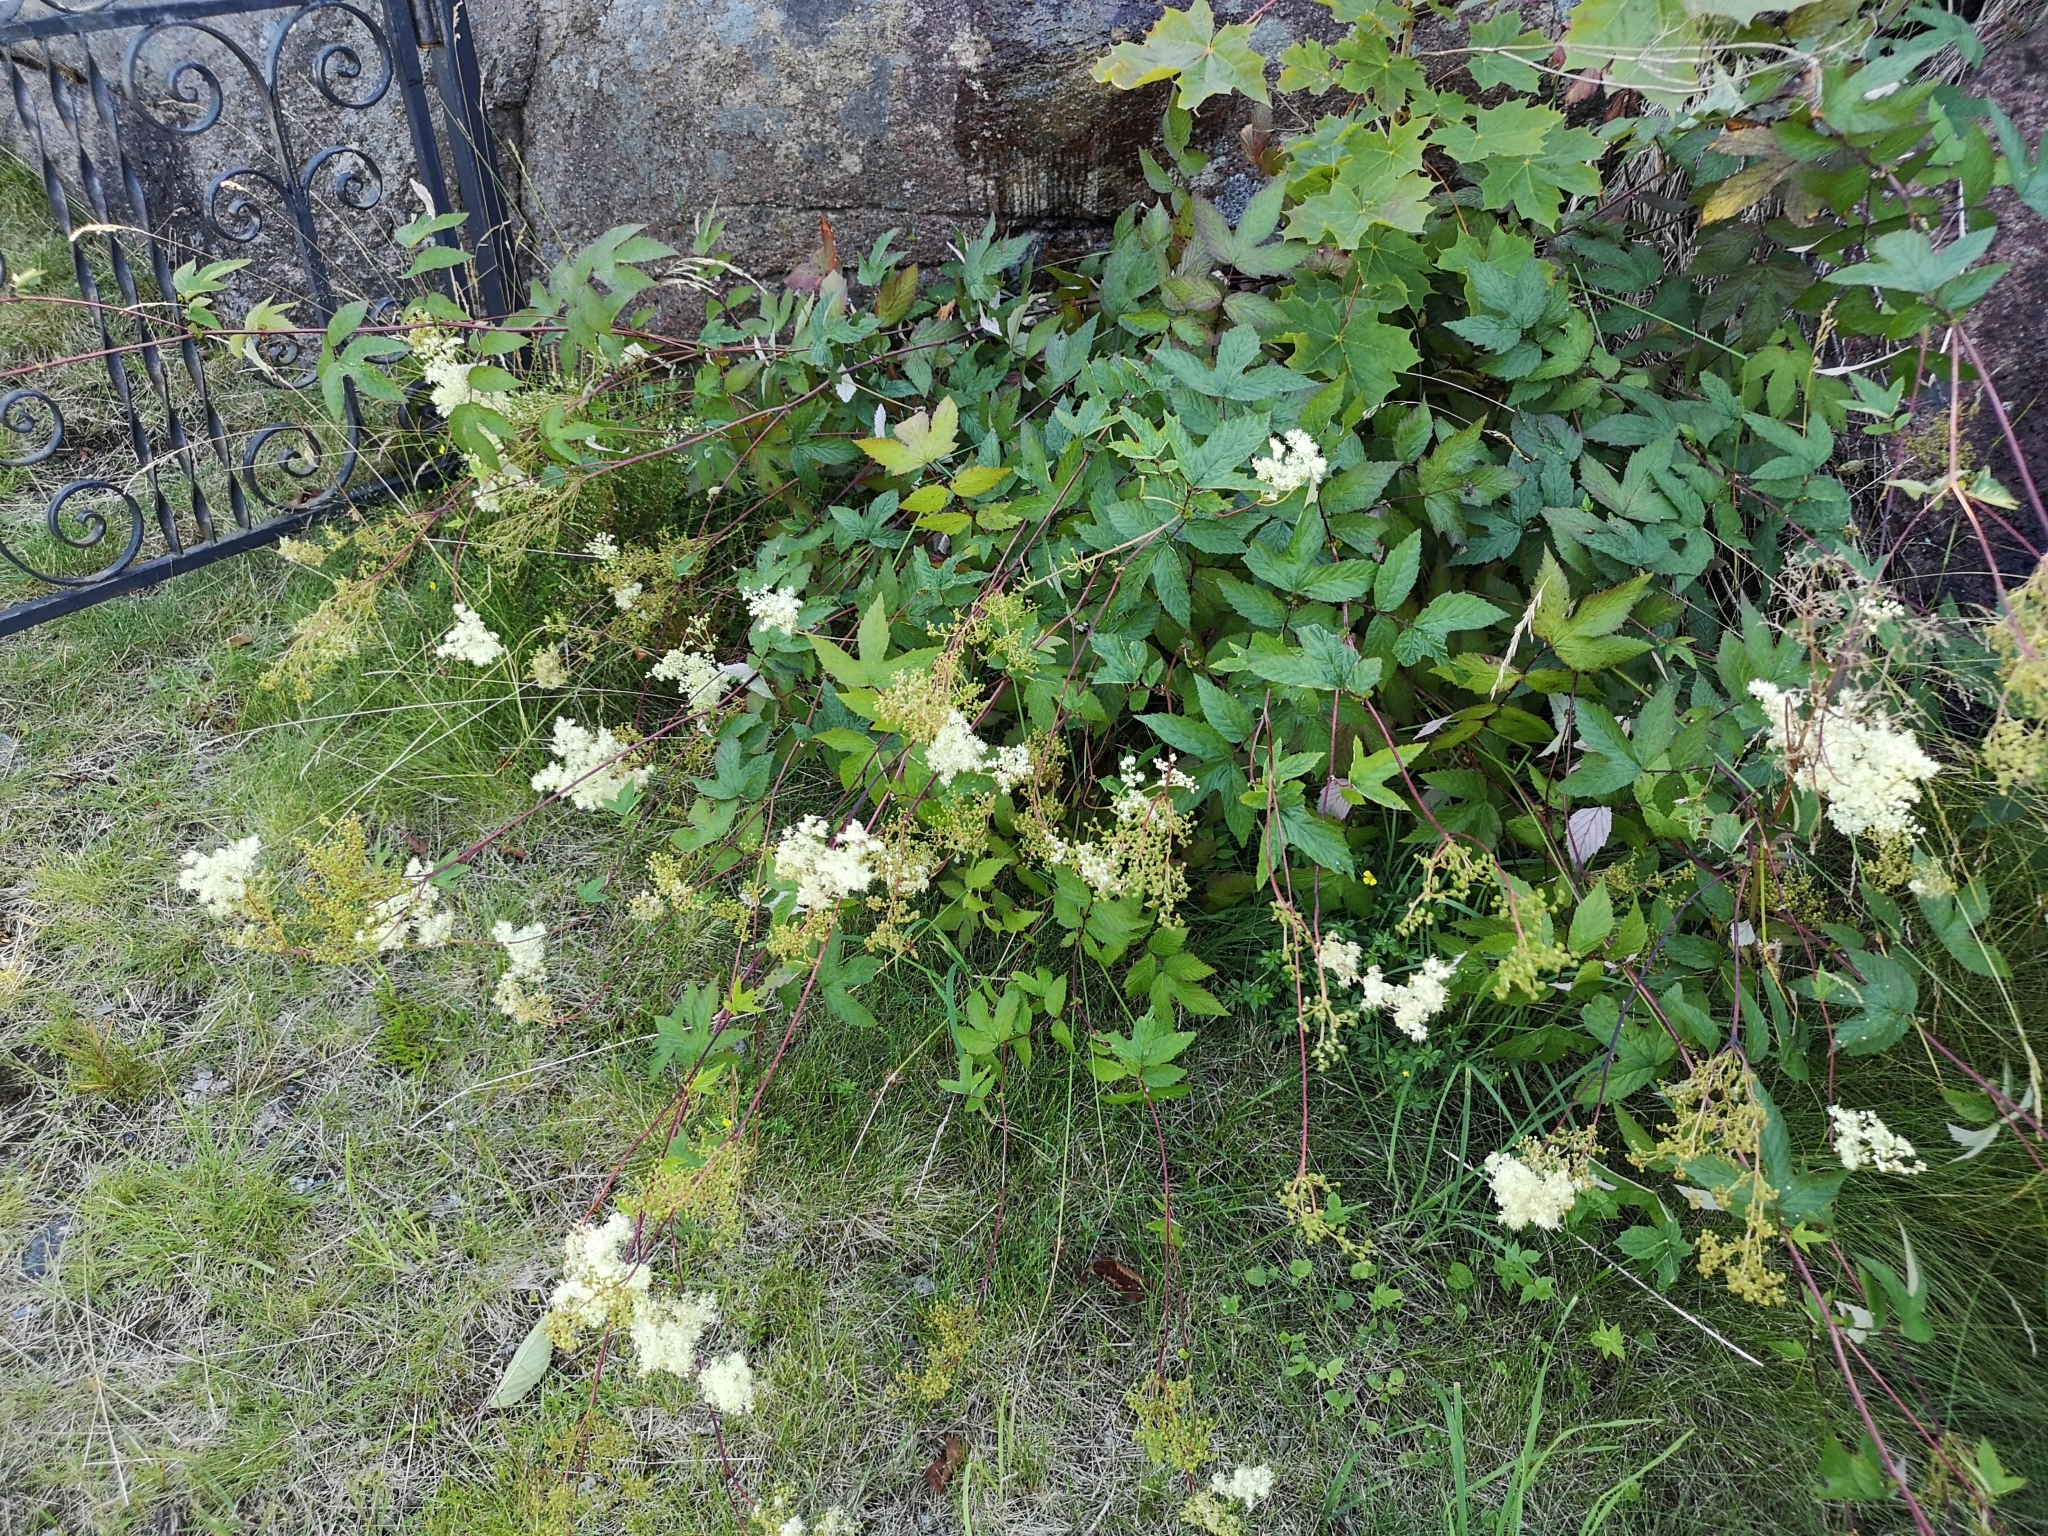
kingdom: Plantae
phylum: Tracheophyta
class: Magnoliopsida
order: Rosales
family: Rosaceae
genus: Filipendula
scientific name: Filipendula ulmaria
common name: Meadowsweet
